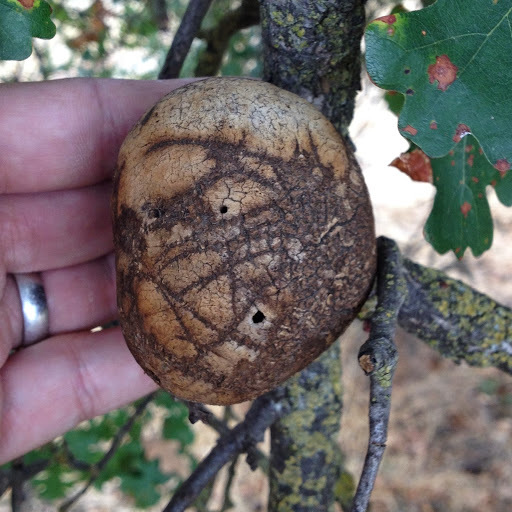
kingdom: Animalia
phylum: Arthropoda
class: Insecta
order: Hymenoptera
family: Cynipidae
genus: Andricus
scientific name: Andricus quercuscalifornicus
